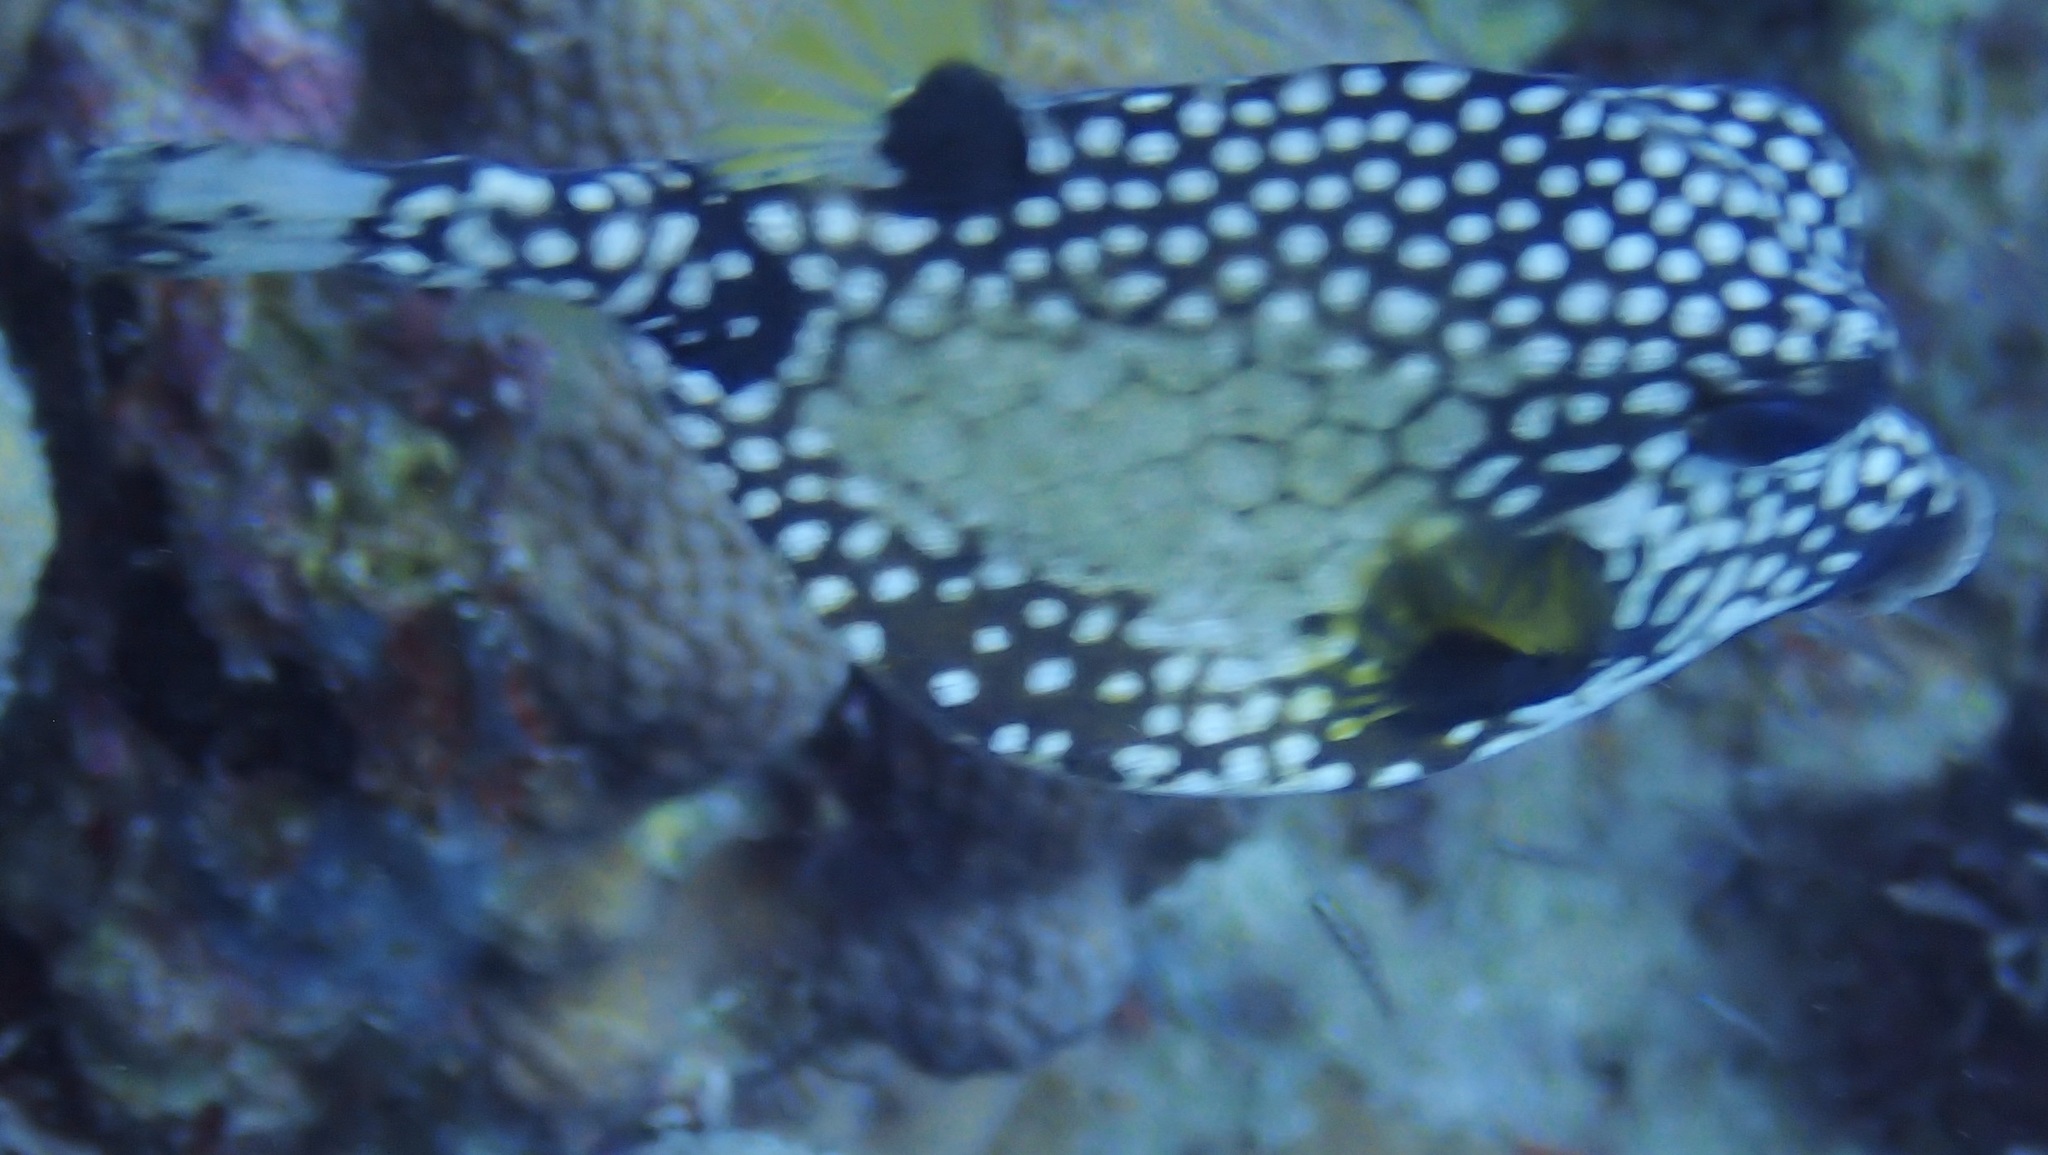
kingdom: Animalia
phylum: Chordata
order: Tetraodontiformes
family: Ostraciidae
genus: Lactophrys
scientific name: Lactophrys triqueter
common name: Smooth trunkfish
